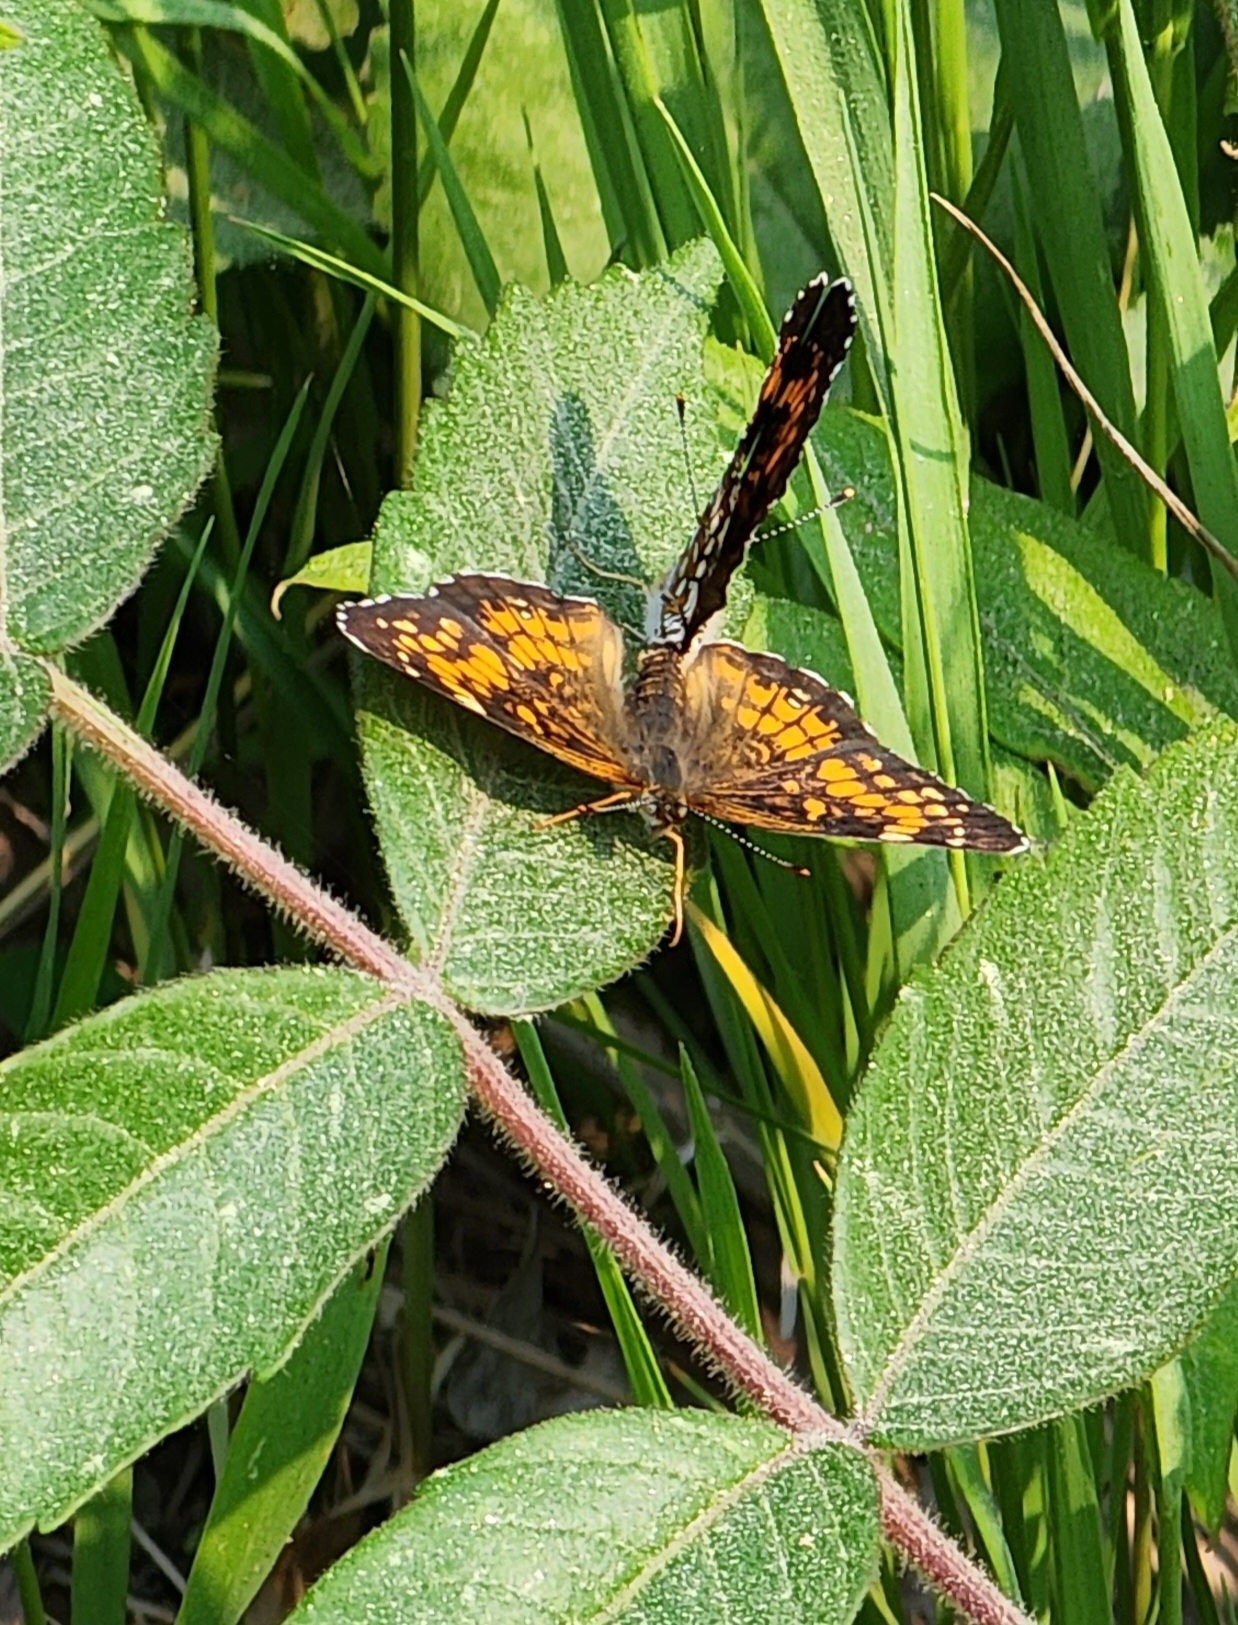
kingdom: Animalia
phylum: Arthropoda
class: Insecta
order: Lepidoptera
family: Nymphalidae
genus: Chlosyne
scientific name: Chlosyne harrisii
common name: Harris's checkerspot
